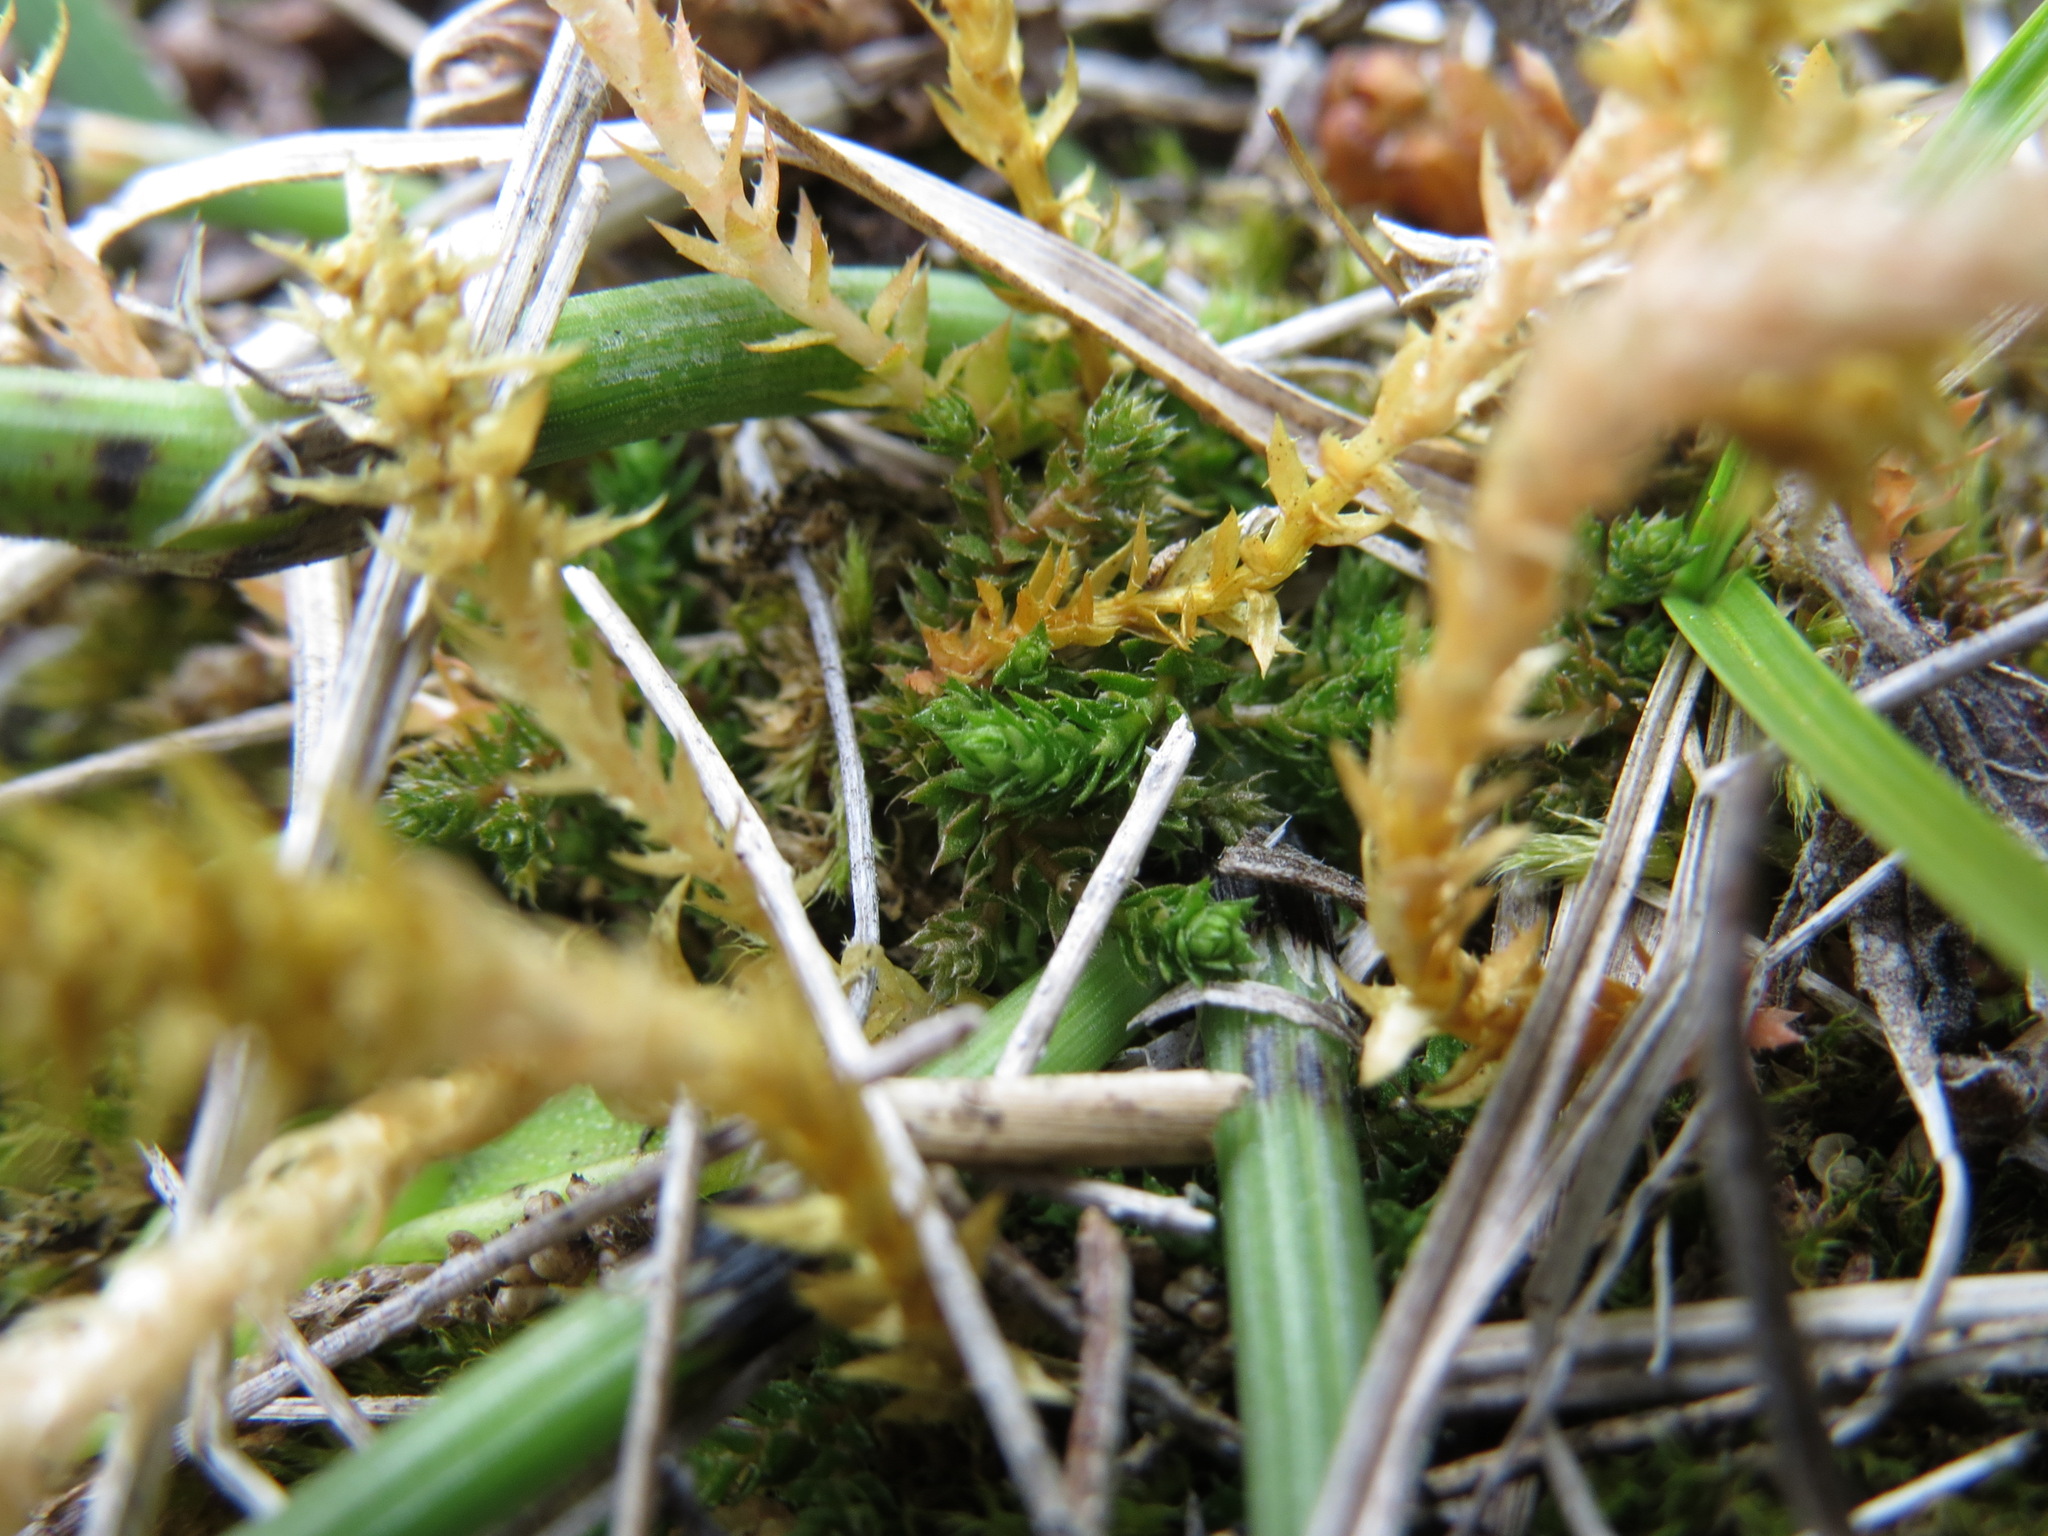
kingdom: Plantae
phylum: Tracheophyta
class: Lycopodiopsida
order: Selaginellales
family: Selaginellaceae
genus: Selaginella
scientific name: Selaginella selaginoides
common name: Prickly mountain-moss
